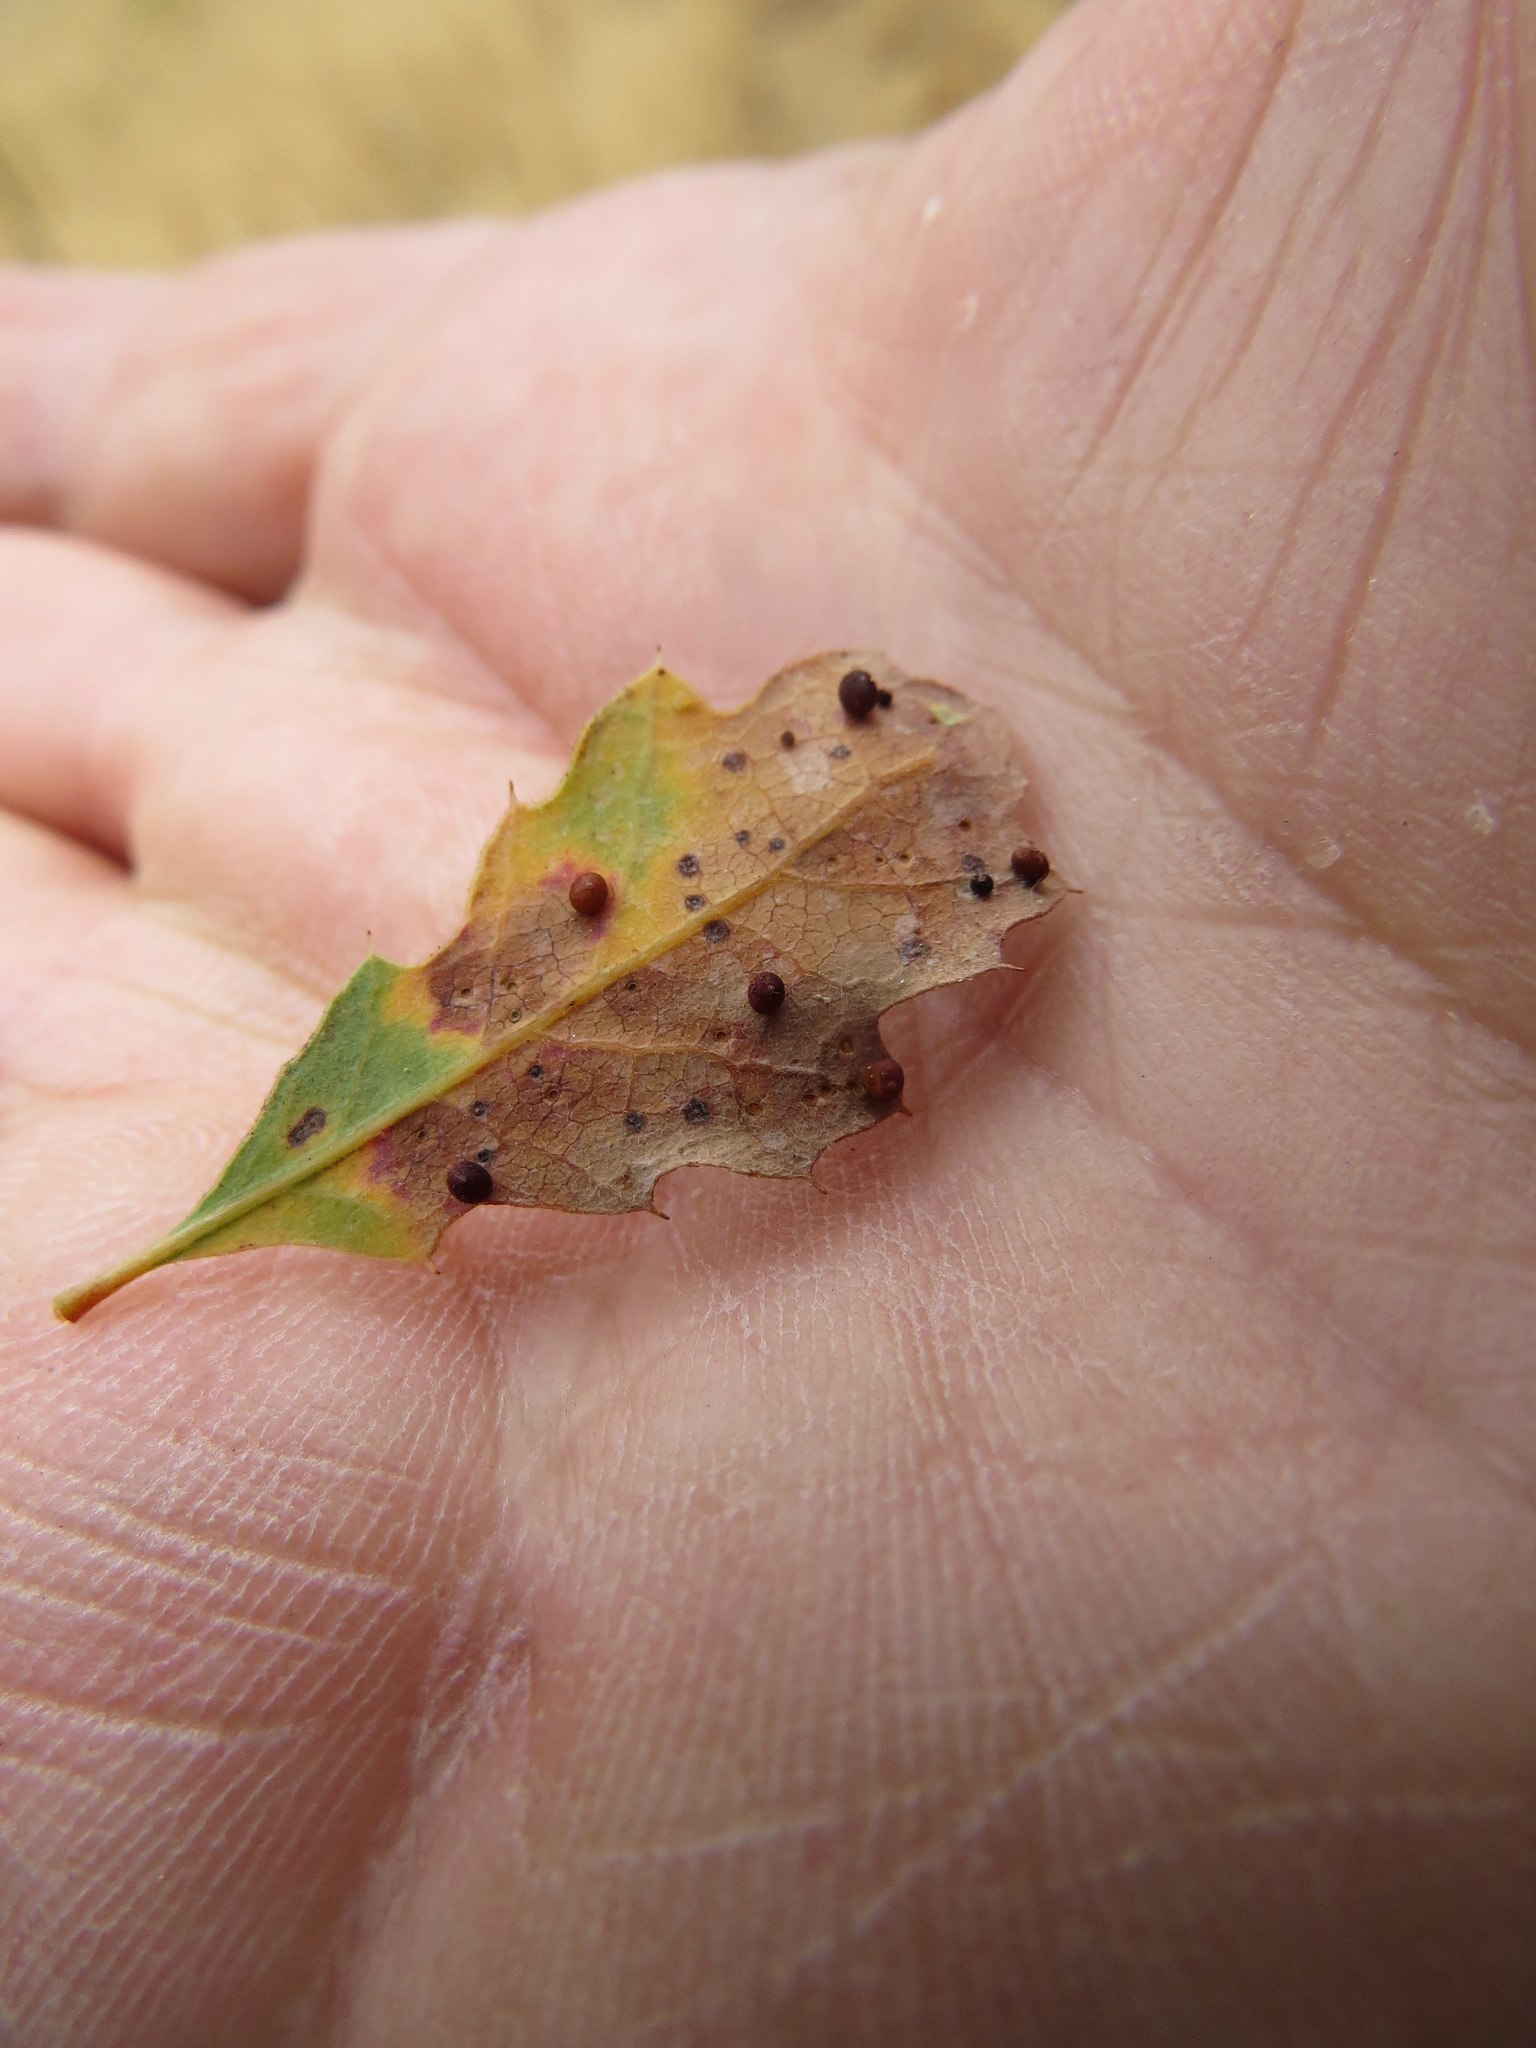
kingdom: Animalia
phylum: Arthropoda
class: Insecta
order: Hymenoptera
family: Cynipidae
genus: Neuroterus
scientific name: Neuroterus saltarius
